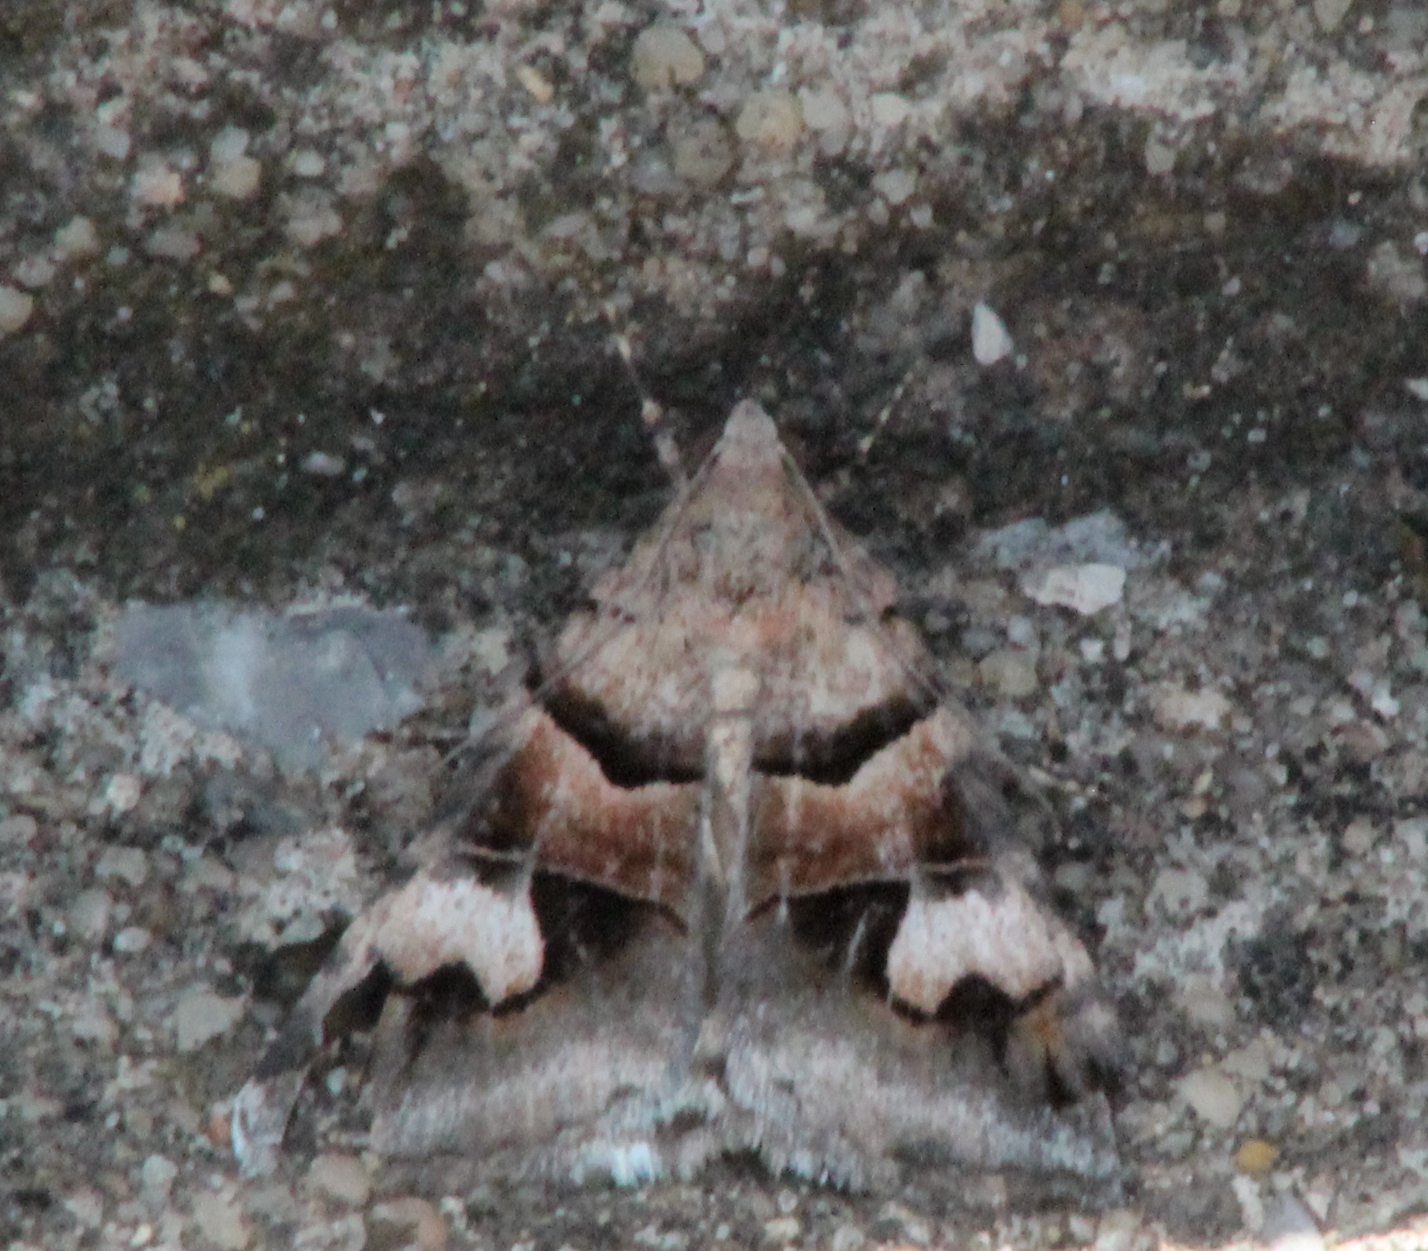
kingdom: Animalia
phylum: Arthropoda
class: Insecta
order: Lepidoptera
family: Erebidae
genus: Drasteria
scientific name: Drasteria pallescens
